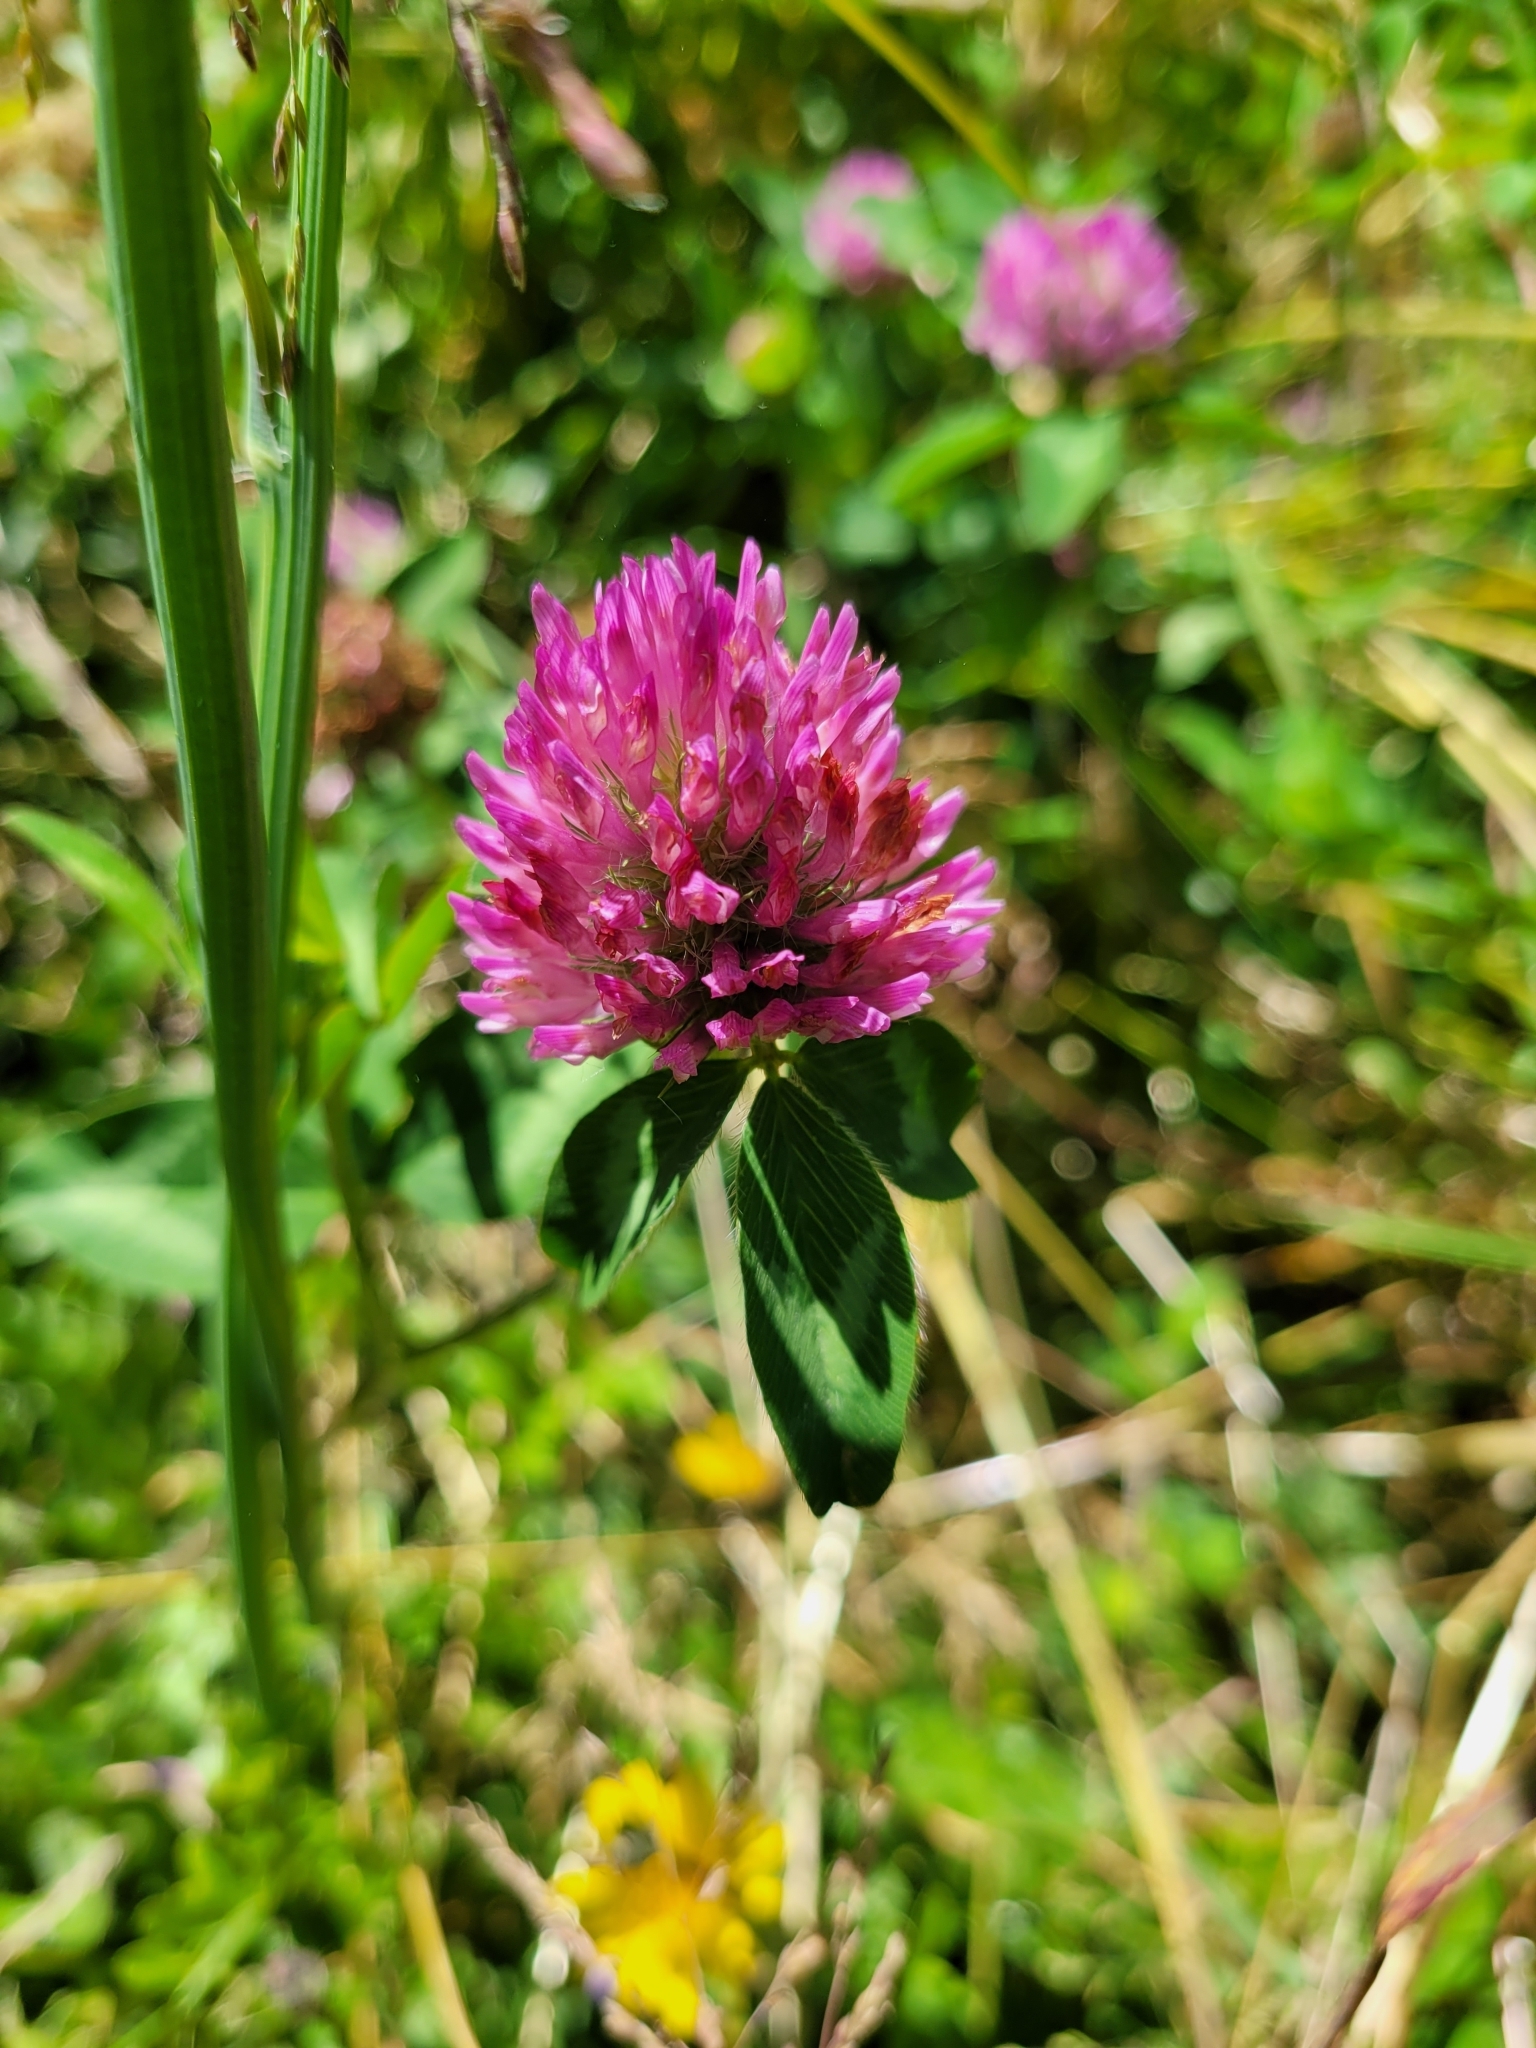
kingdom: Plantae
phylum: Tracheophyta
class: Magnoliopsida
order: Fabales
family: Fabaceae
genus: Trifolium
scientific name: Trifolium pratense
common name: Red clover
